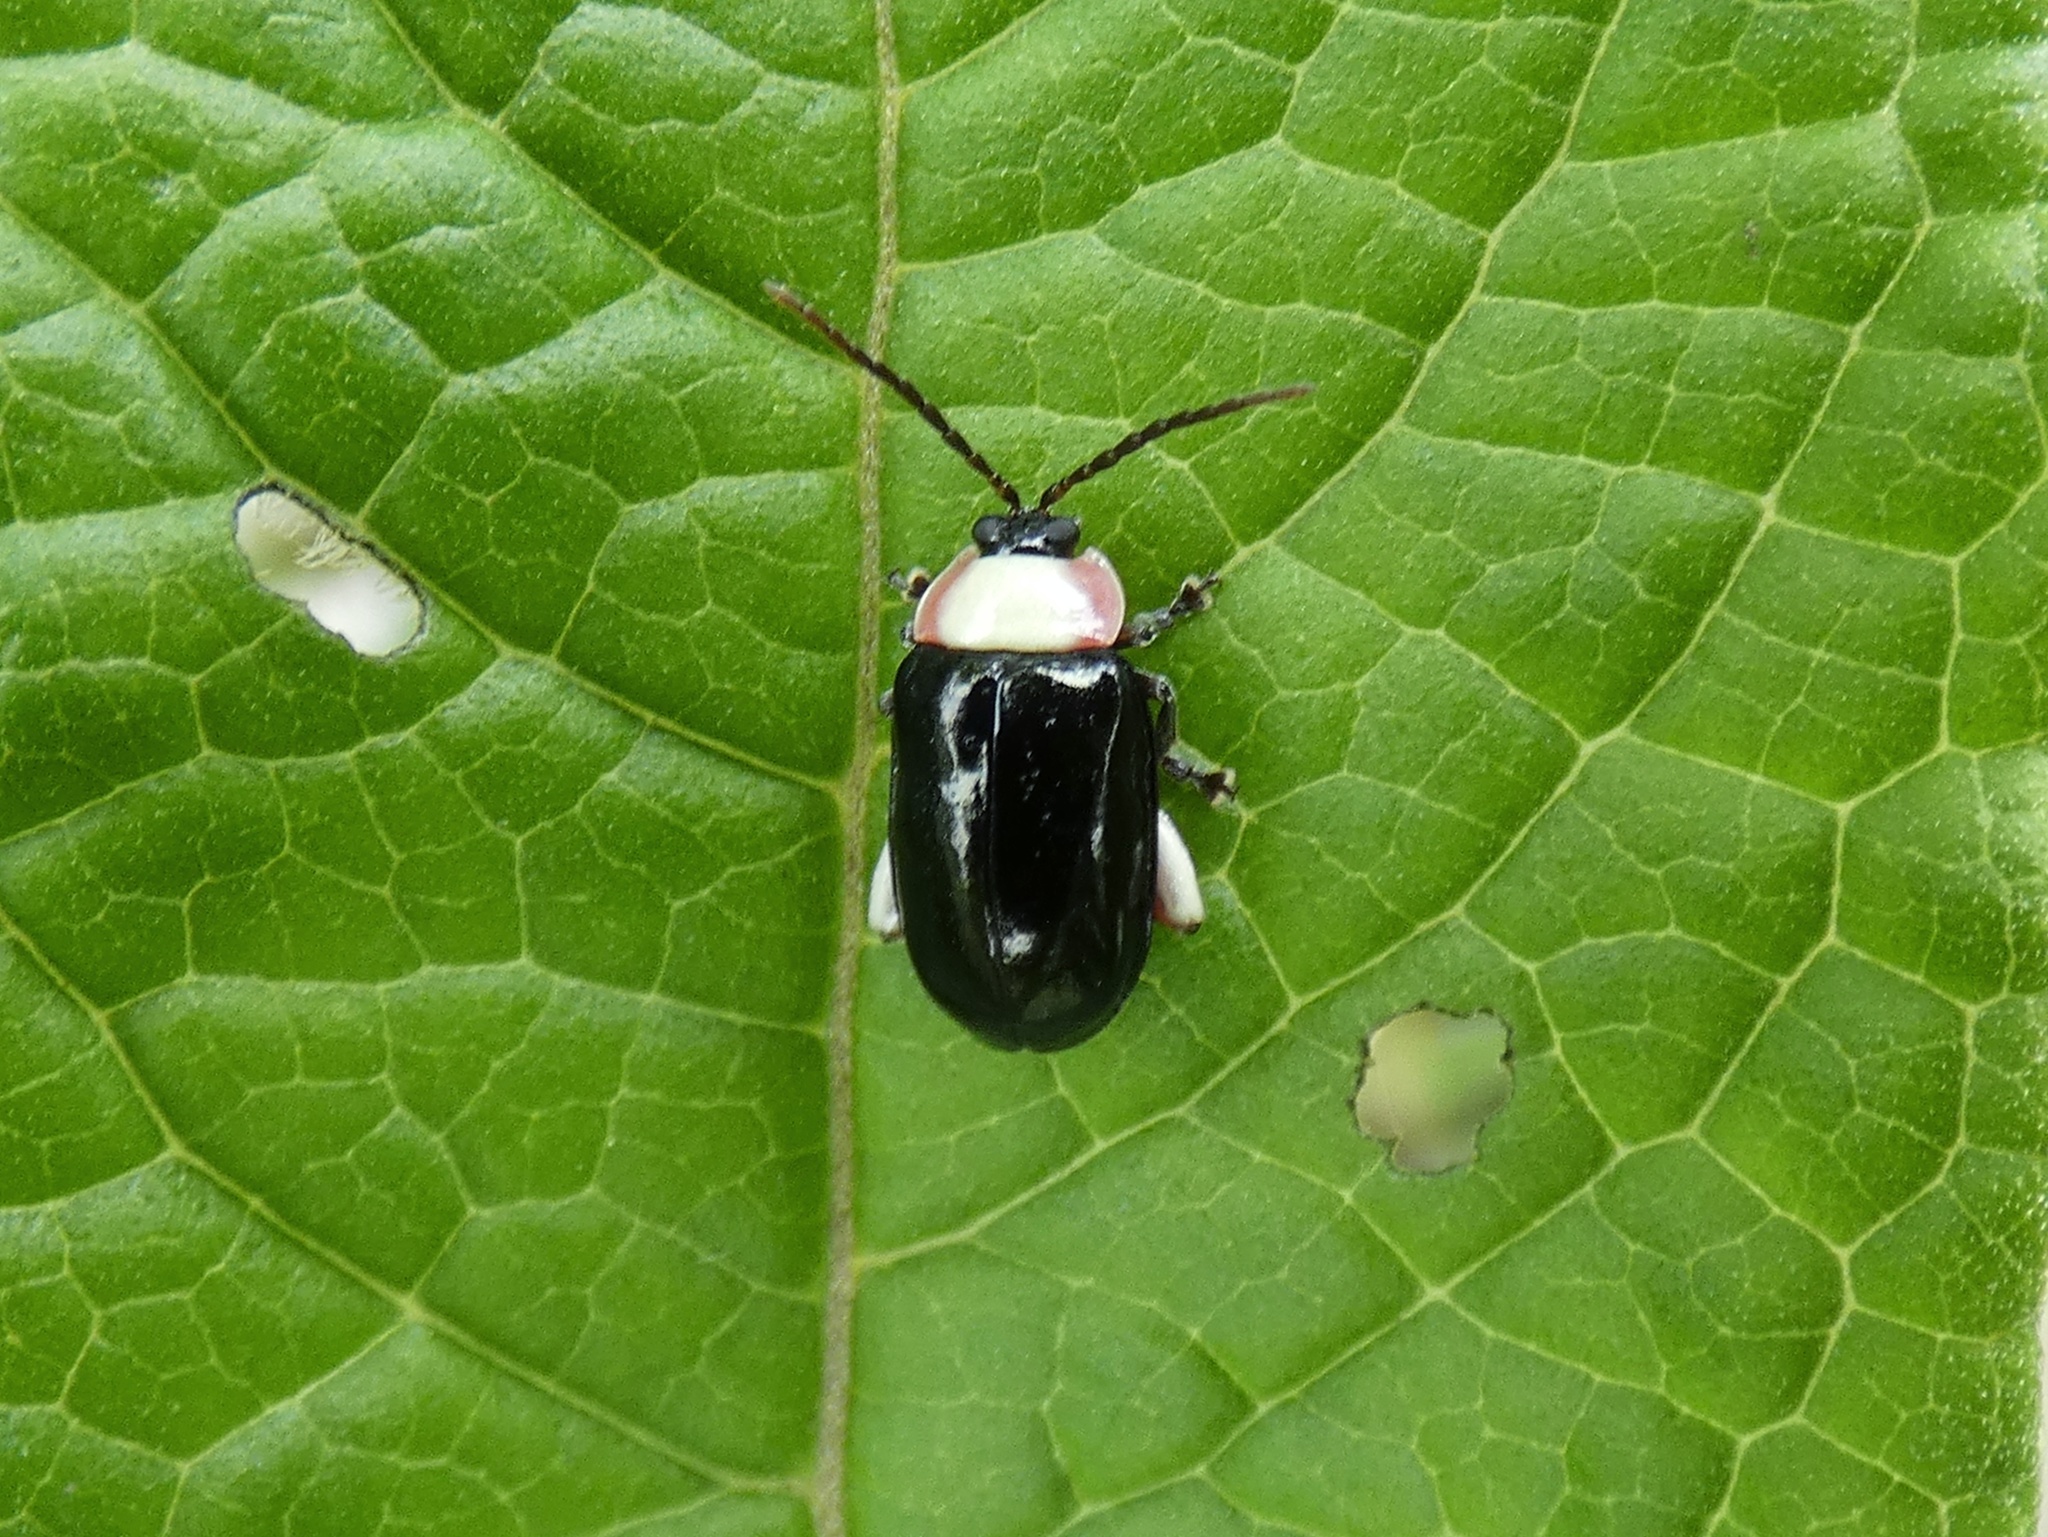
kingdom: Animalia
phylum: Arthropoda
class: Insecta
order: Coleoptera
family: Chrysomelidae
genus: Asphaera
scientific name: Asphaera
